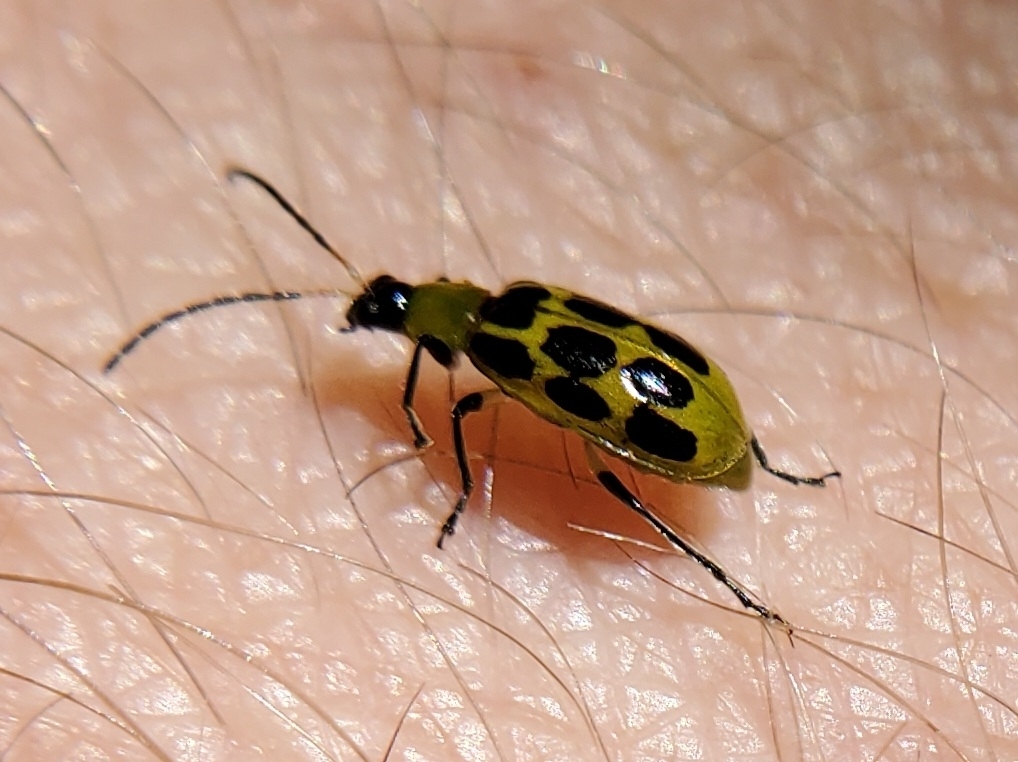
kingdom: Animalia
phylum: Arthropoda
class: Insecta
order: Coleoptera
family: Chrysomelidae
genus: Diabrotica
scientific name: Diabrotica undecimpunctata
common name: Spotted cucumber beetle
